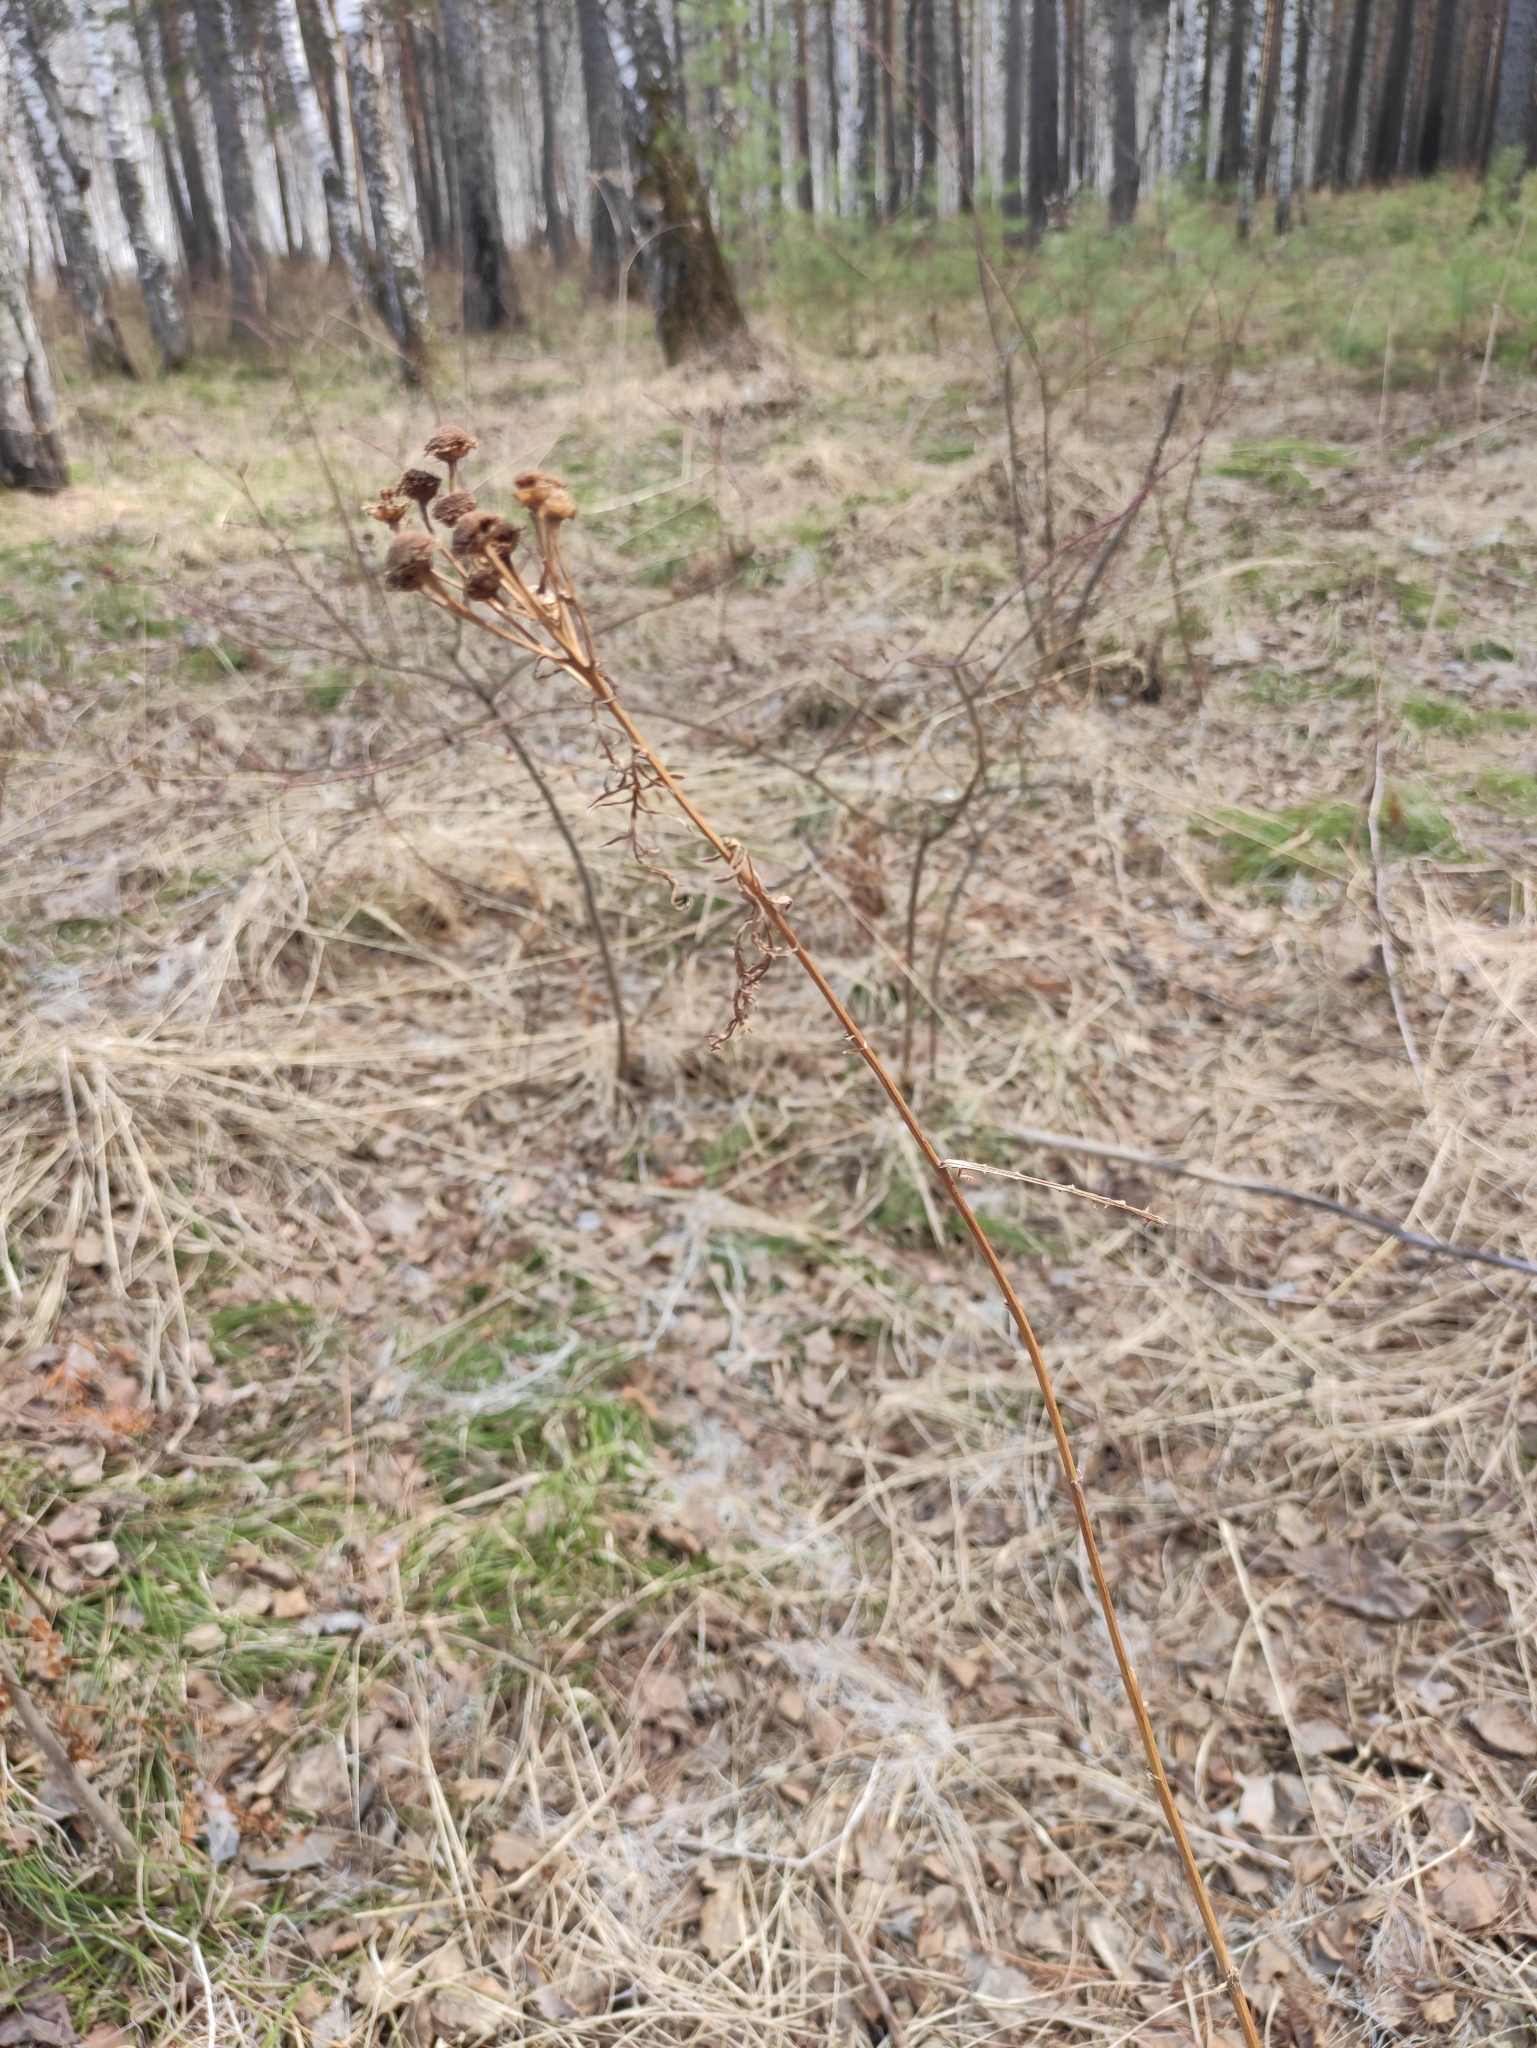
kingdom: Plantae
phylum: Tracheophyta
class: Magnoliopsida
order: Asterales
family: Asteraceae
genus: Tanacetum
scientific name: Tanacetum vulgare
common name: Common tansy
